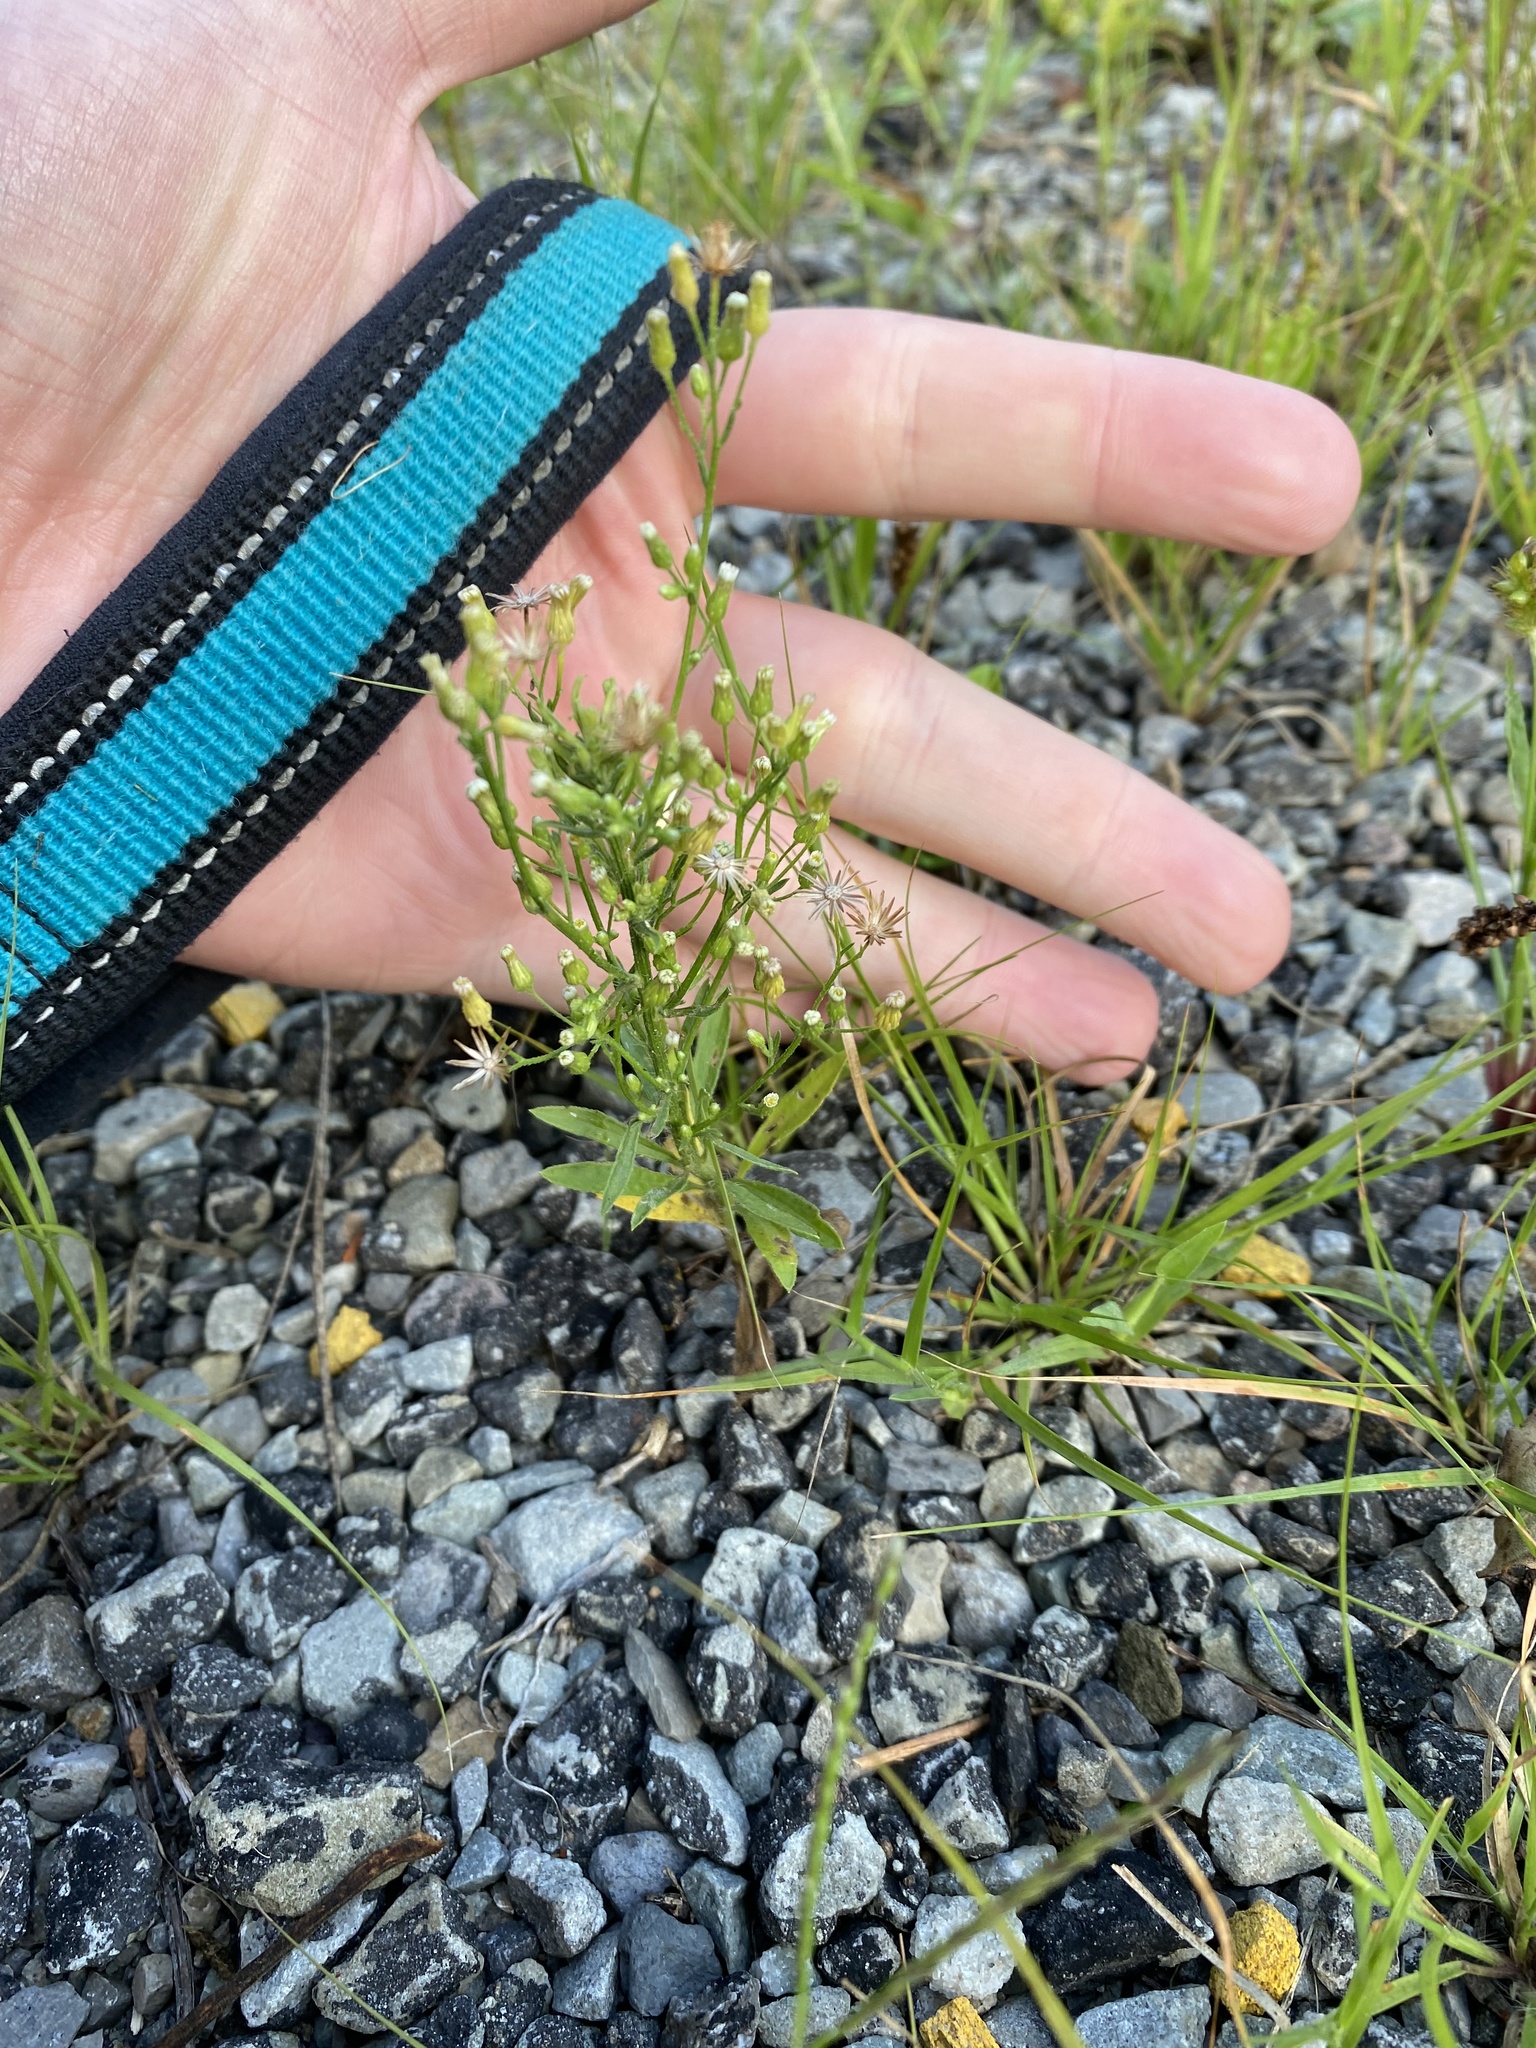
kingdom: Plantae
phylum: Tracheophyta
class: Magnoliopsida
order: Asterales
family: Asteraceae
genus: Erigeron
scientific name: Erigeron canadensis
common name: Canadian fleabane
